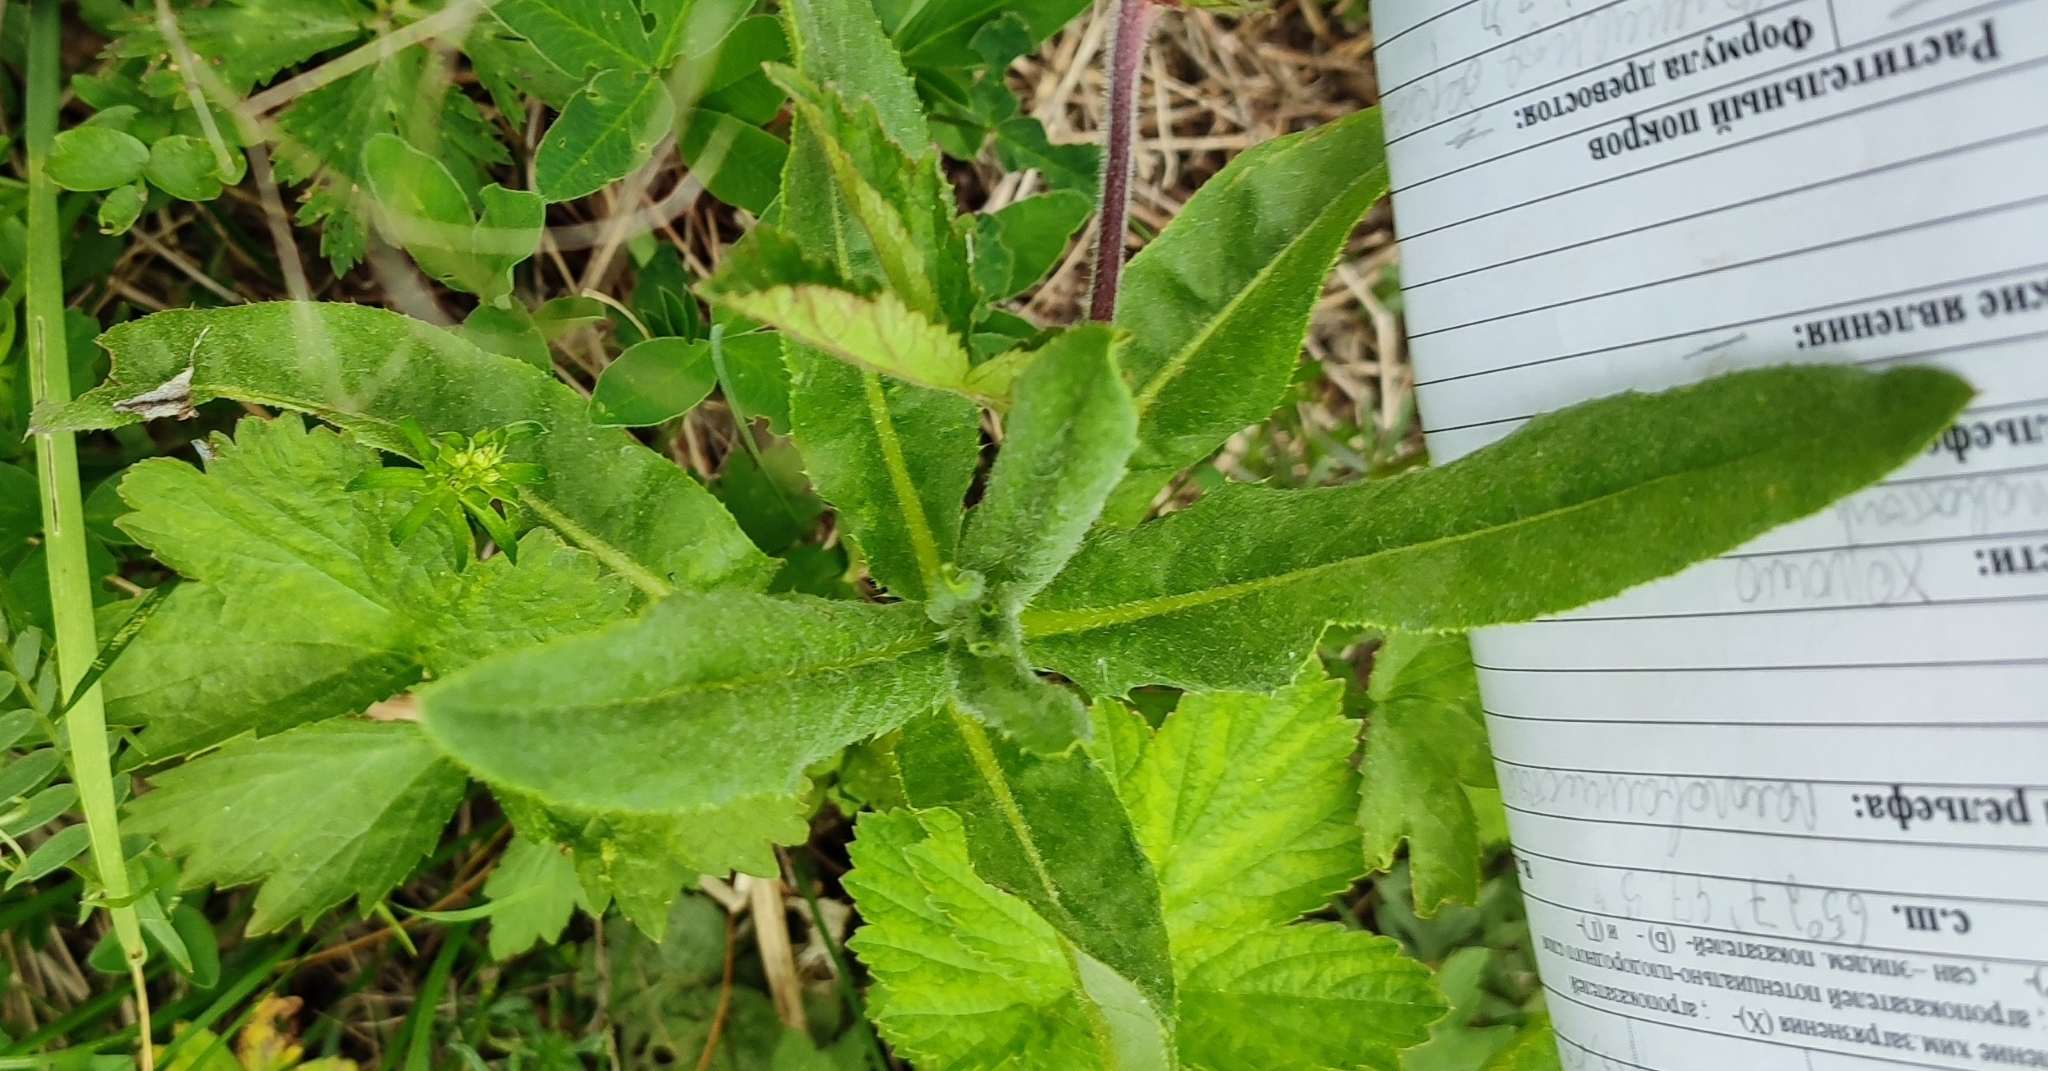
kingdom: Plantae
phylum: Tracheophyta
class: Magnoliopsida
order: Asterales
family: Asteraceae
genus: Cirsium
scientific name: Cirsium arvense
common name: Creeping thistle
